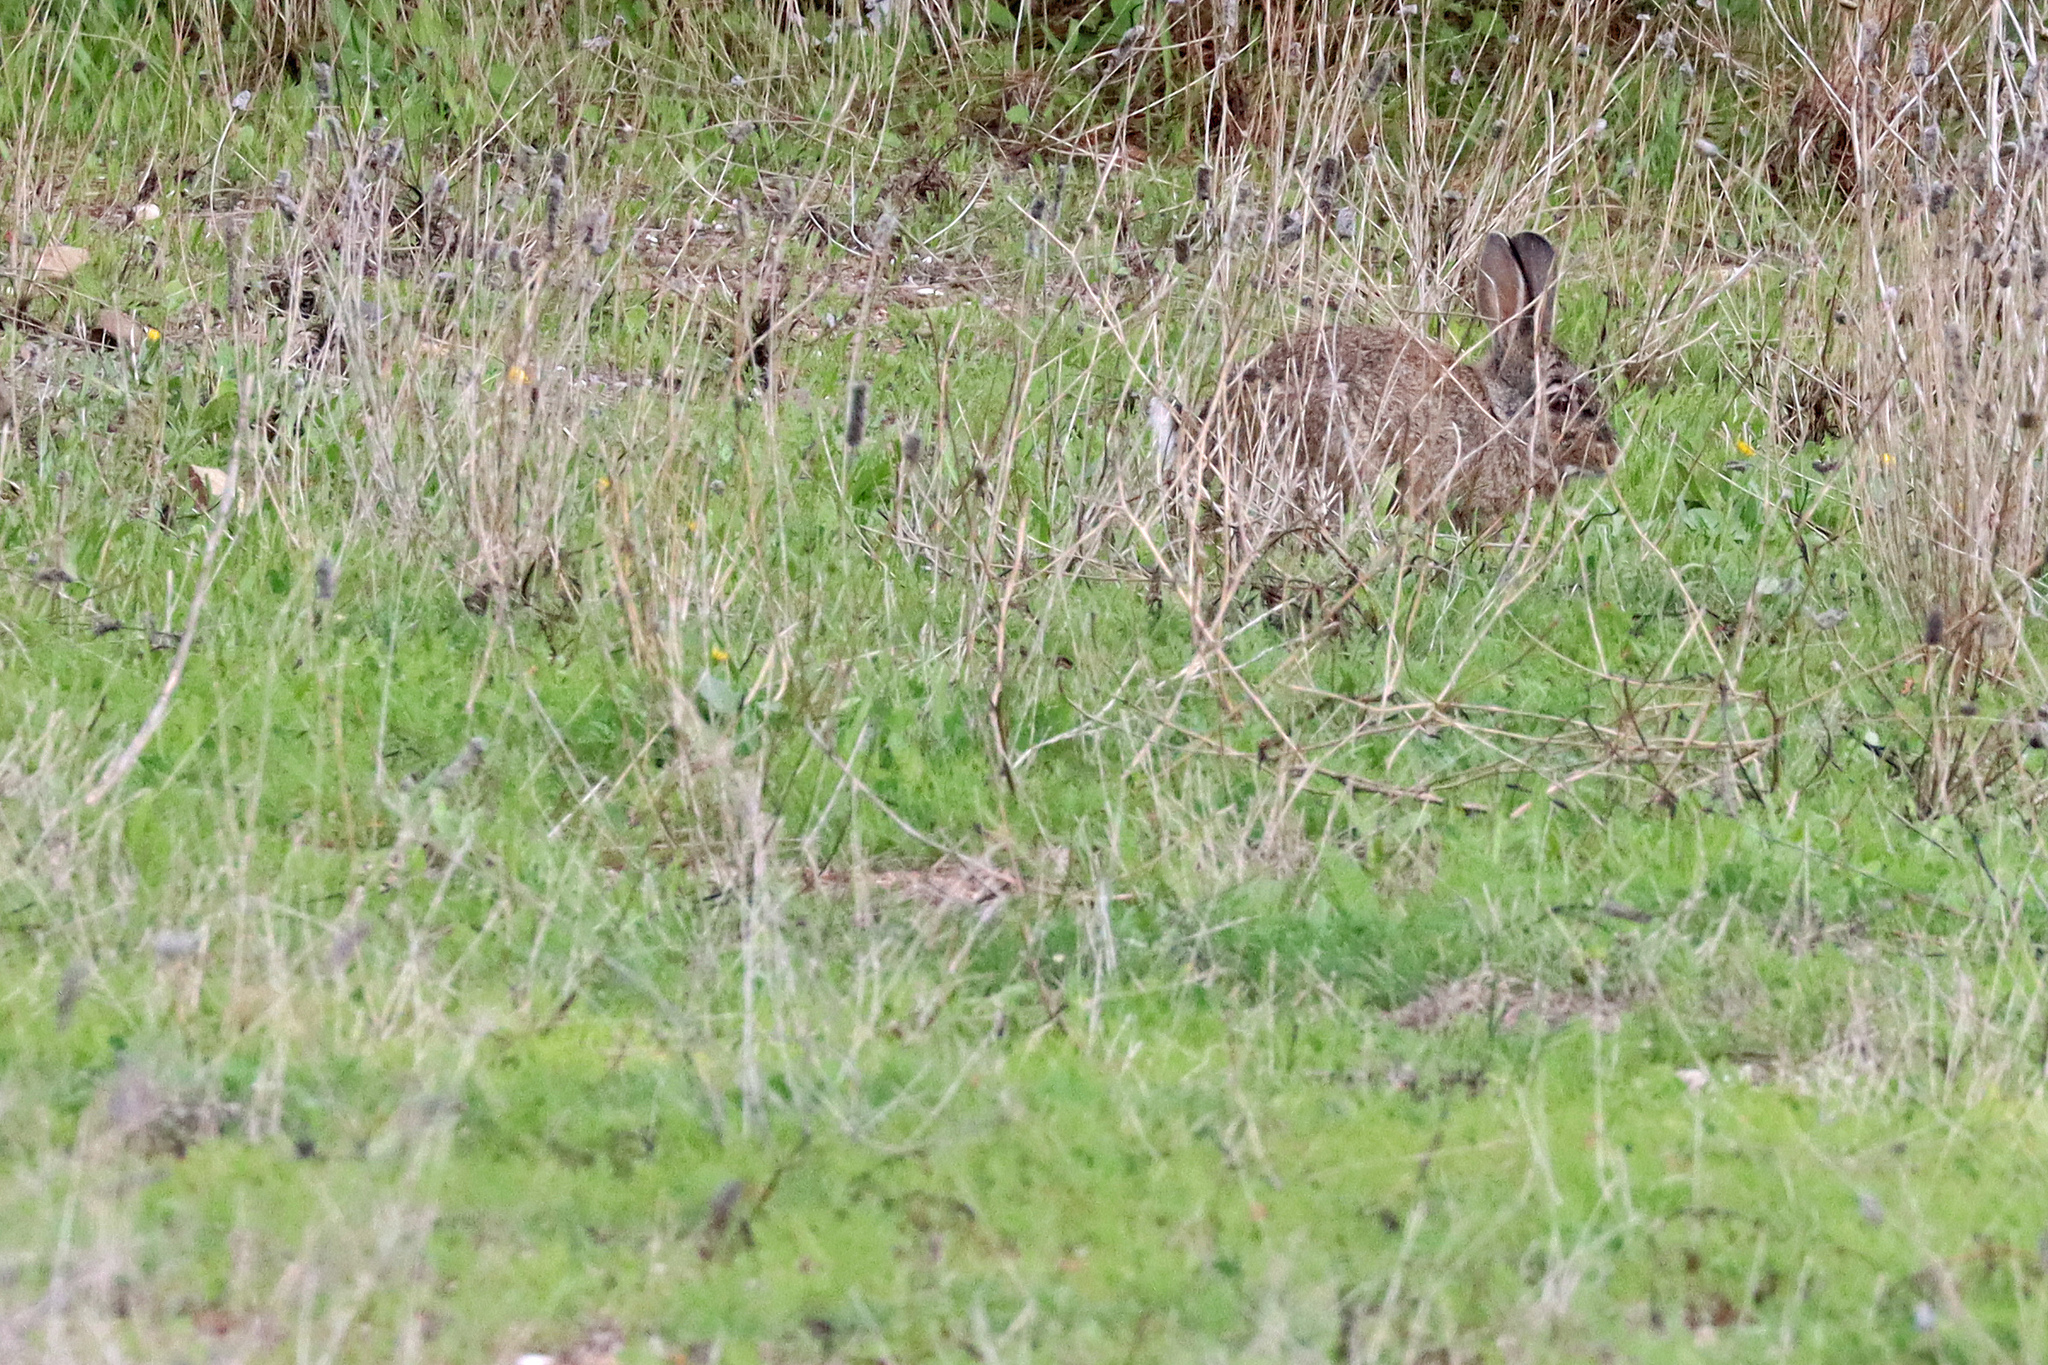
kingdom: Animalia
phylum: Chordata
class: Mammalia
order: Lagomorpha
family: Leporidae
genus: Oryctolagus
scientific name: Oryctolagus cuniculus
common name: European rabbit
